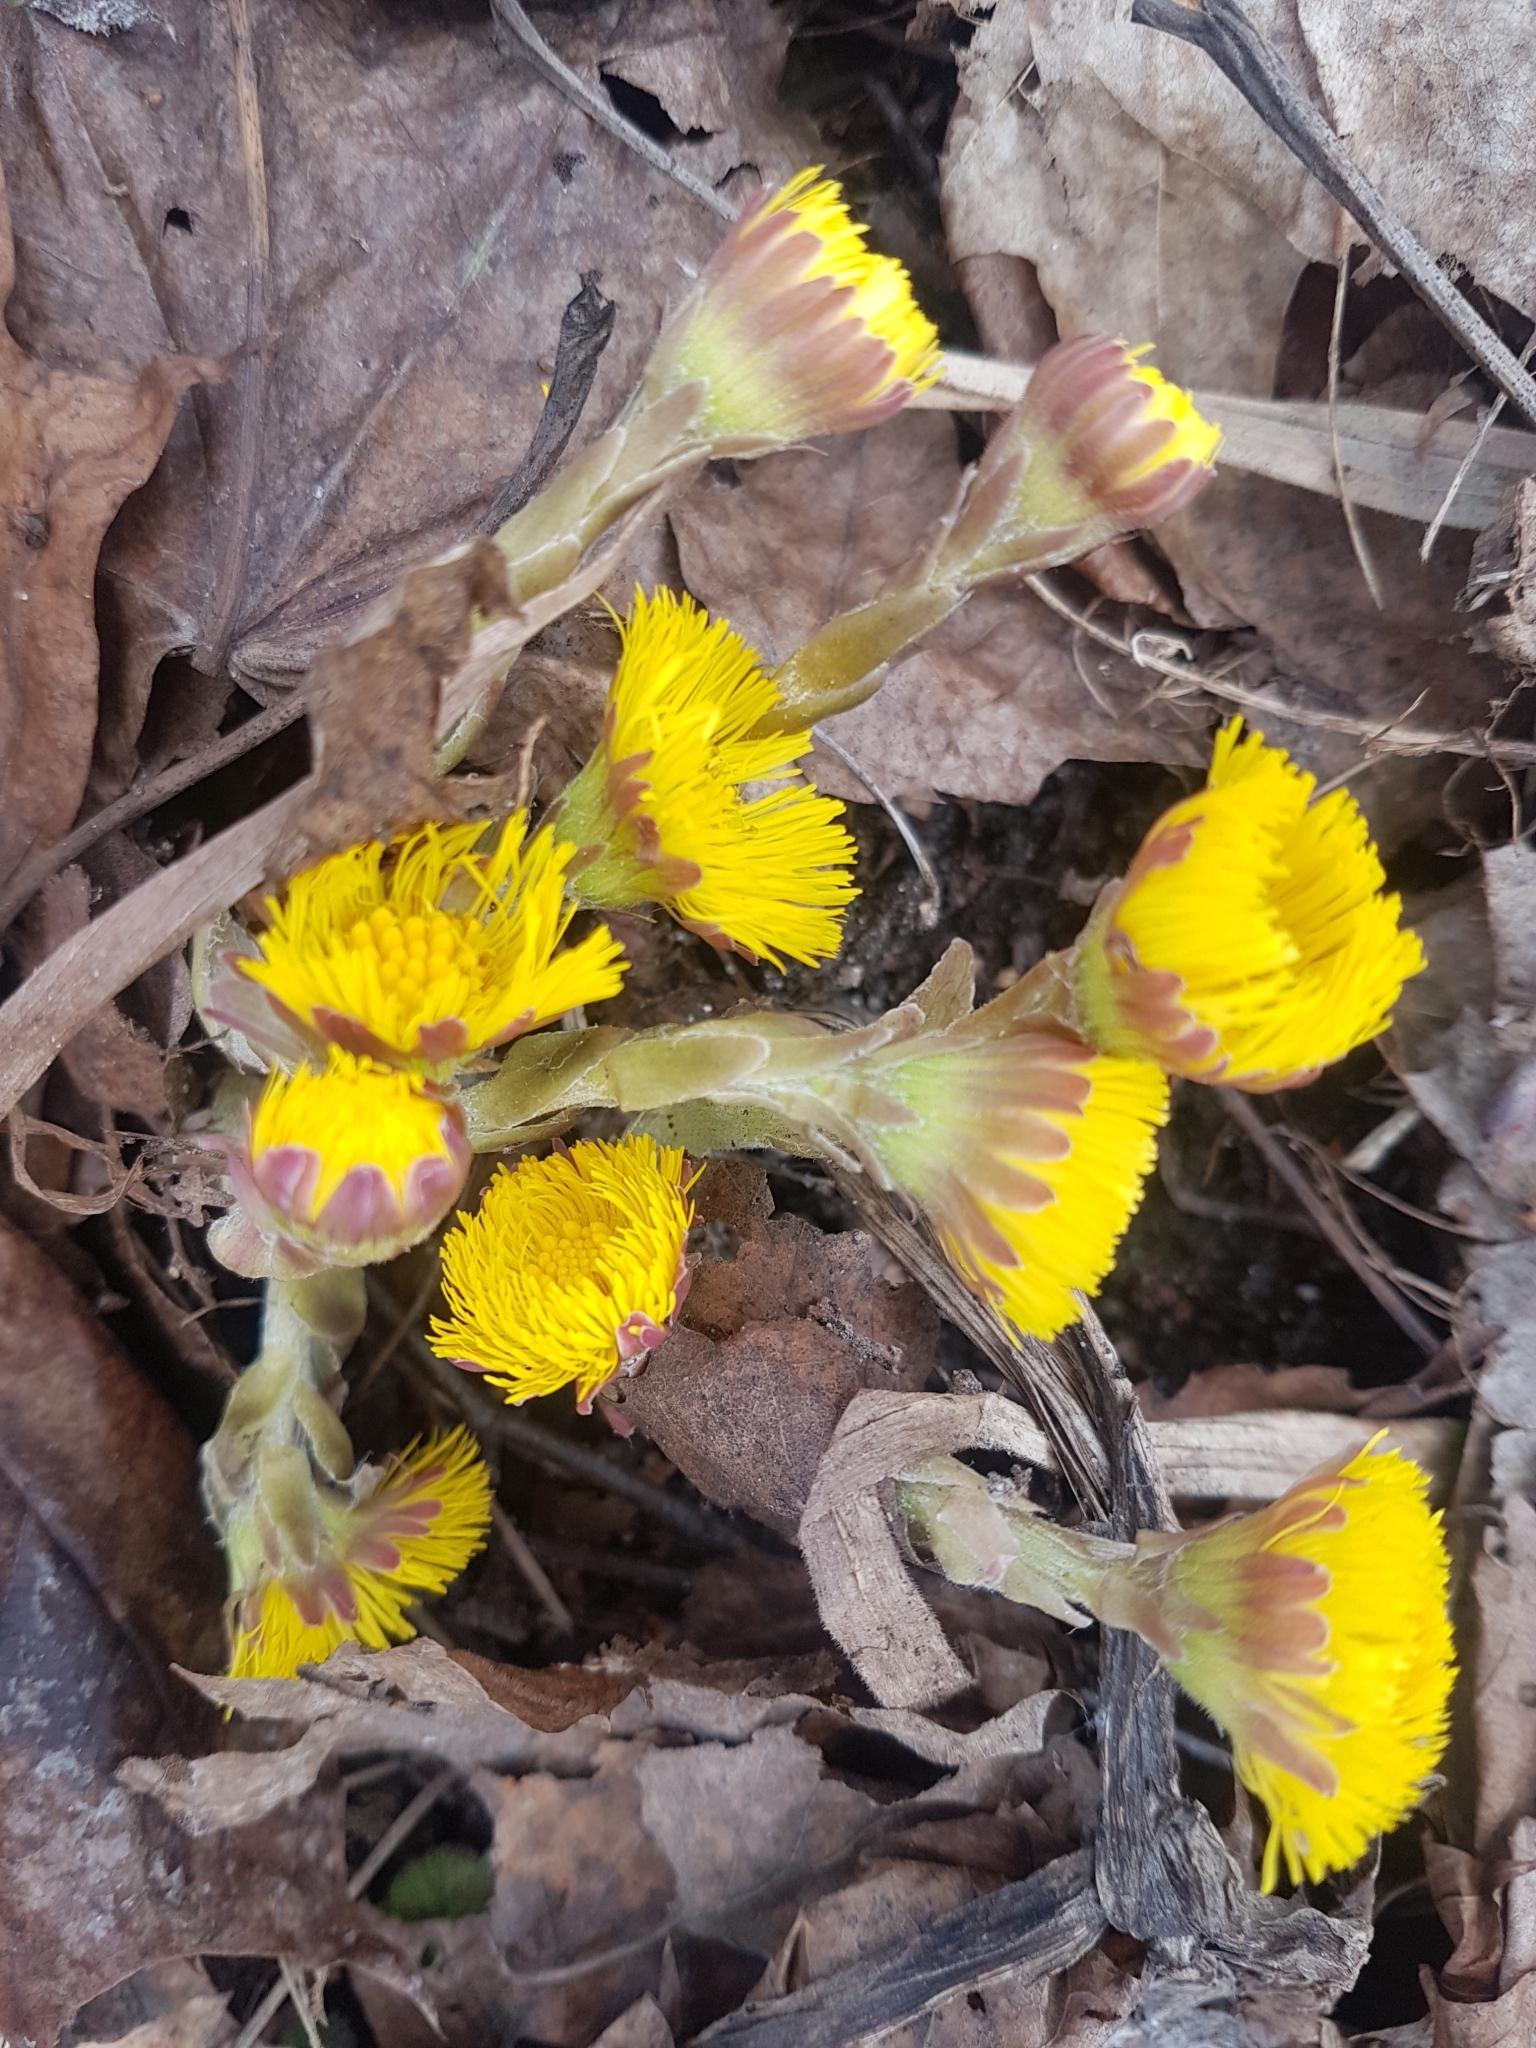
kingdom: Plantae
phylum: Tracheophyta
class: Magnoliopsida
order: Asterales
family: Asteraceae
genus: Tussilago
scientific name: Tussilago farfara
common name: Coltsfoot
